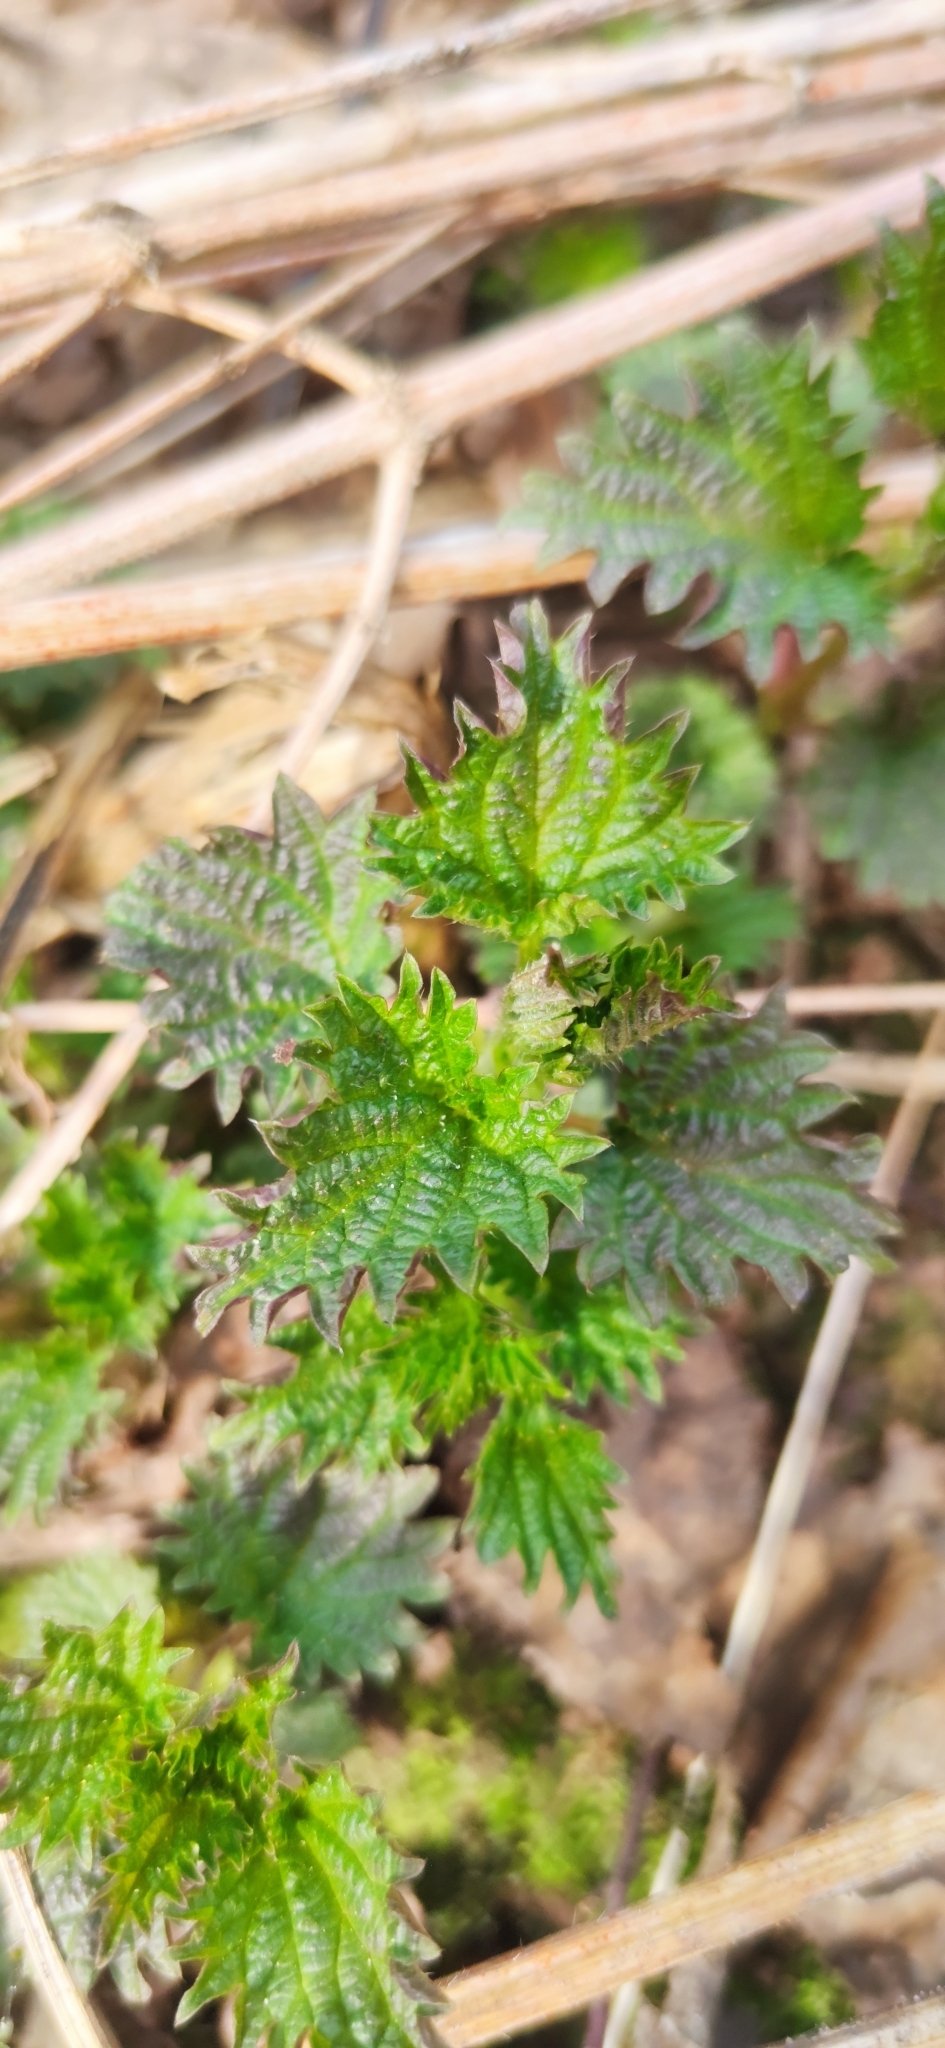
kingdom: Plantae
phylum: Tracheophyta
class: Magnoliopsida
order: Rosales
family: Urticaceae
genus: Urtica
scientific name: Urtica dioica
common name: Common nettle
